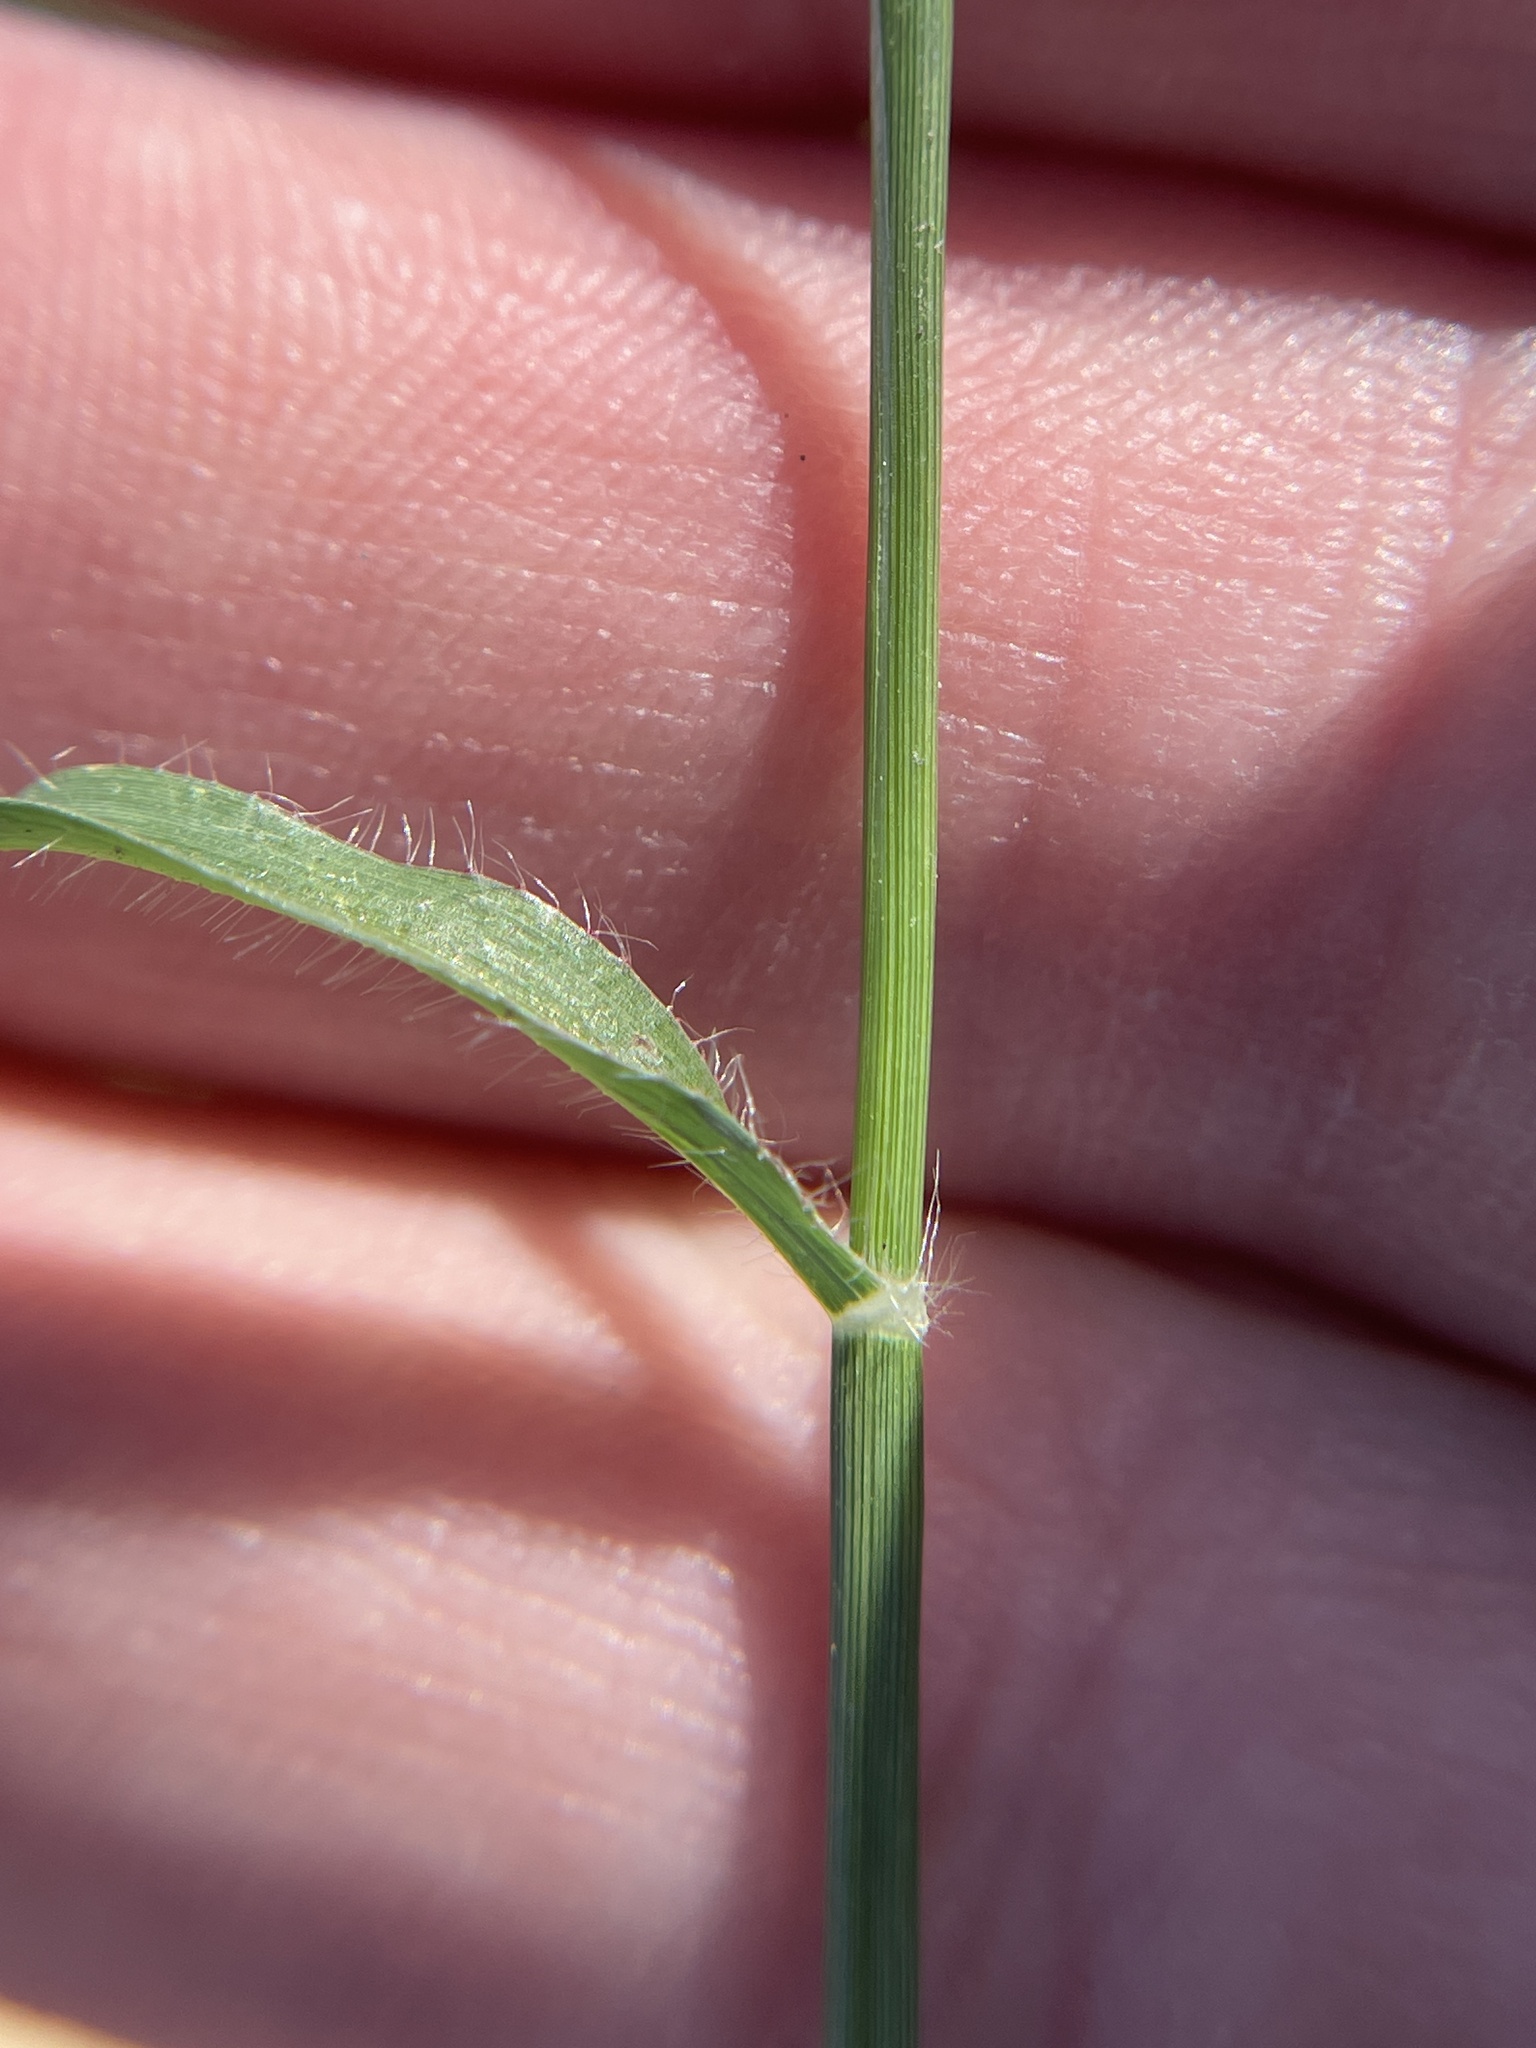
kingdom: Plantae
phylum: Tracheophyta
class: Liliopsida
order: Poales
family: Poaceae
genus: Dactyloctenium
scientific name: Dactyloctenium aegyptium
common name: Egyptian grass
